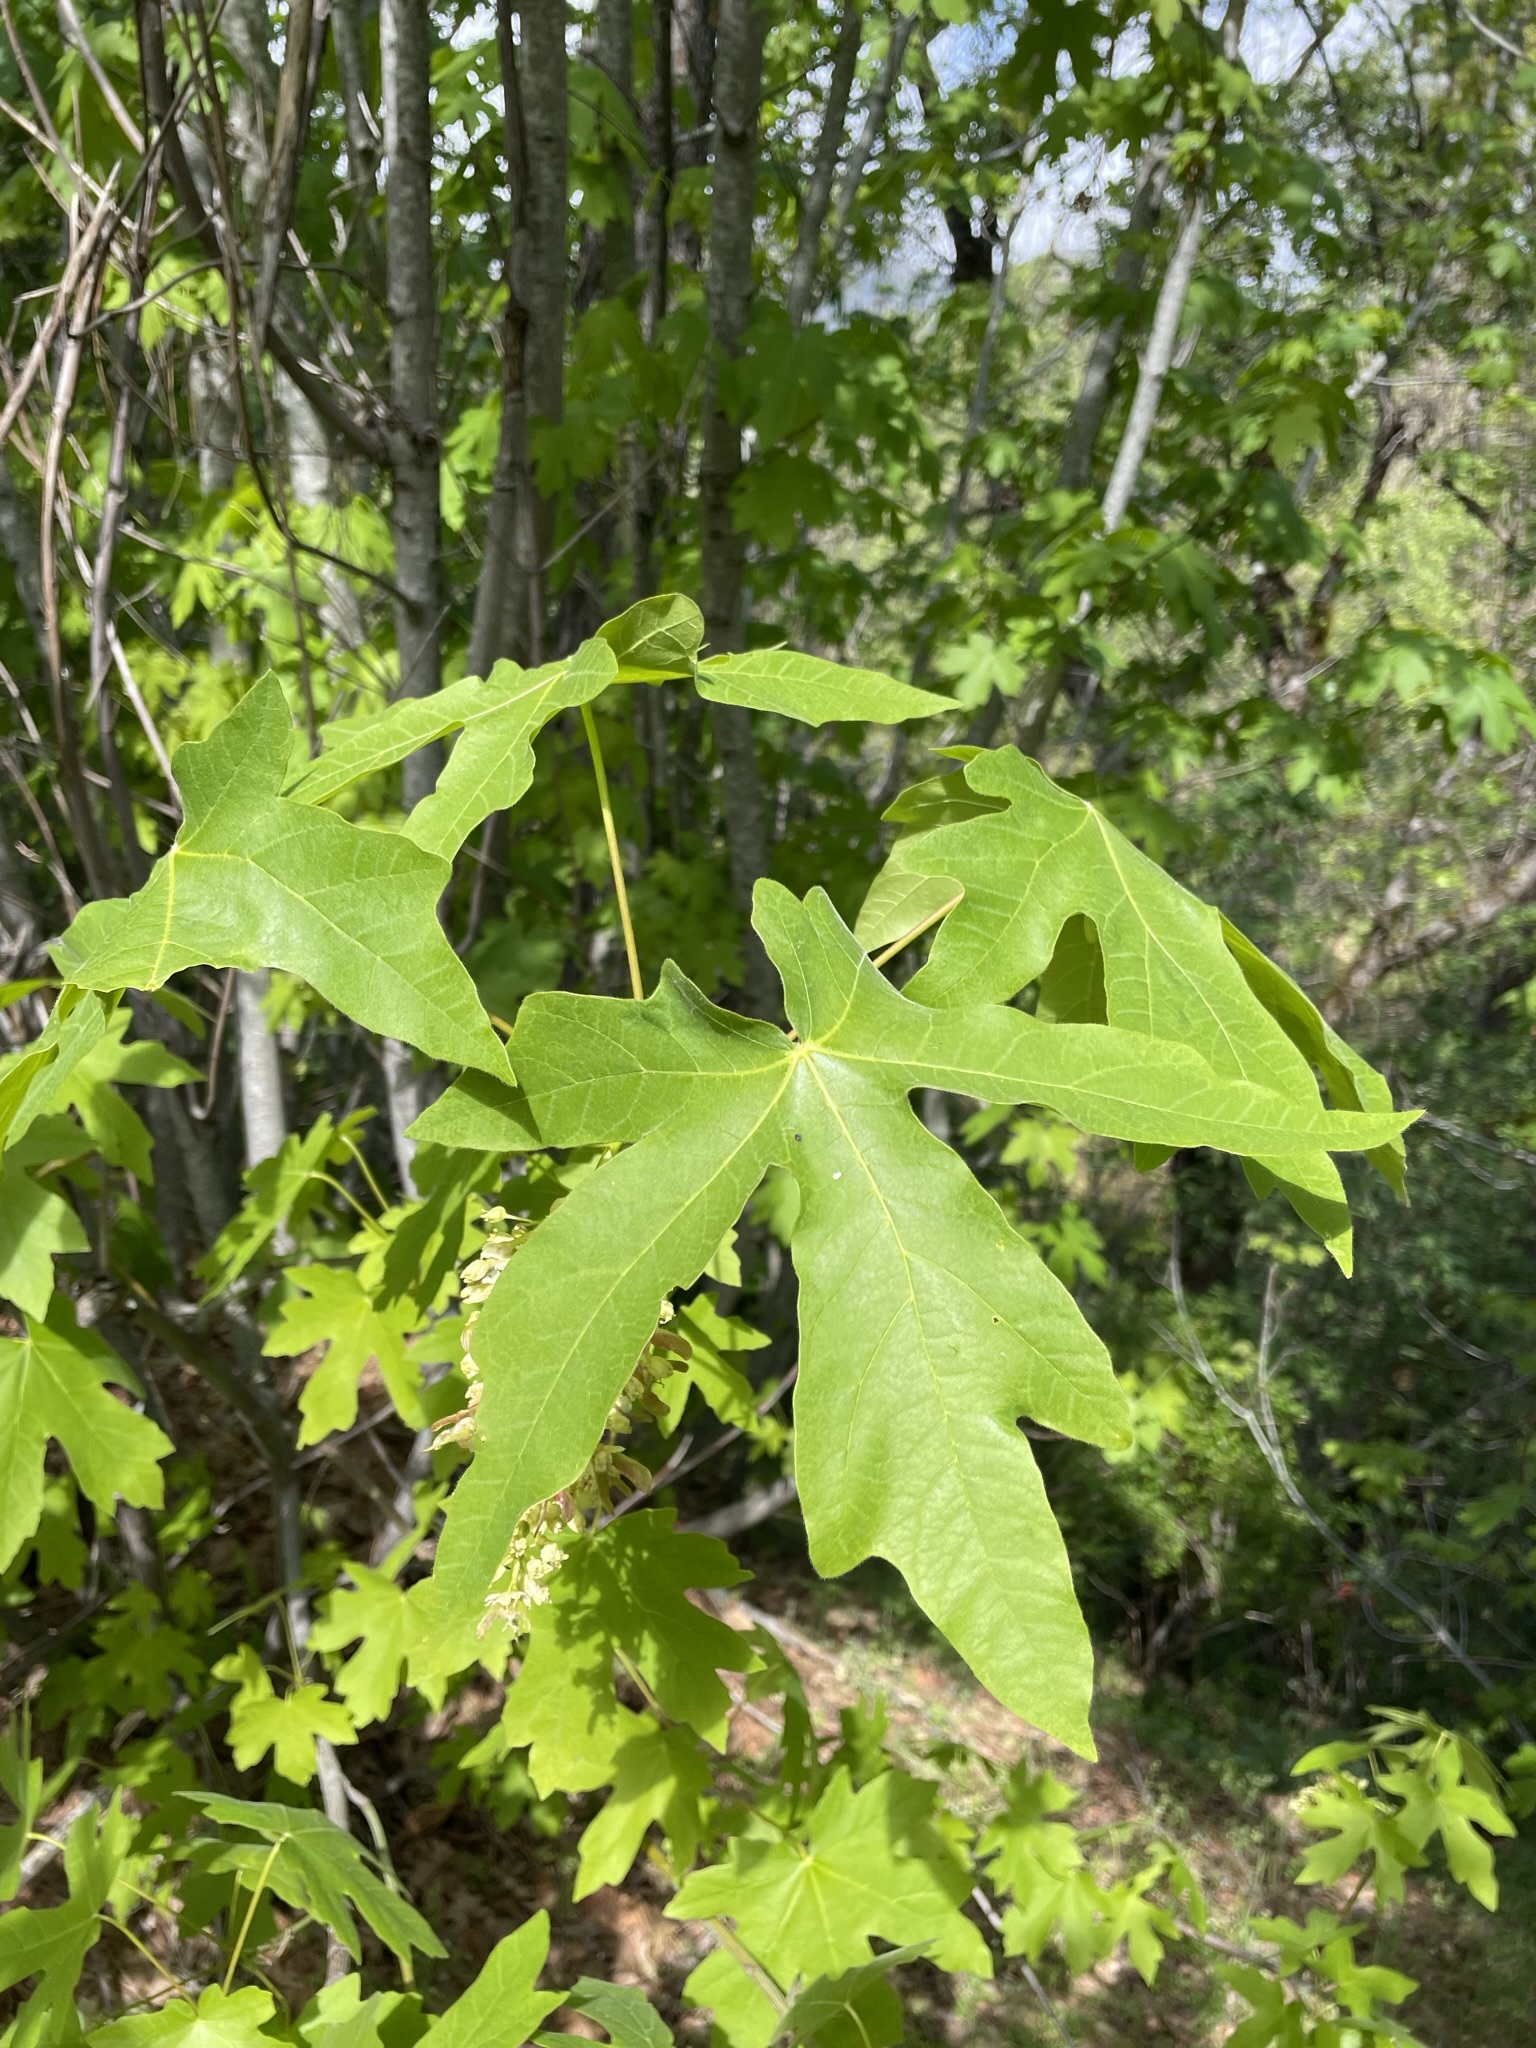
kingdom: Plantae
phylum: Tracheophyta
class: Magnoliopsida
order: Sapindales
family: Sapindaceae
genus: Acer
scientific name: Acer macrophyllum
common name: Oregon maple
